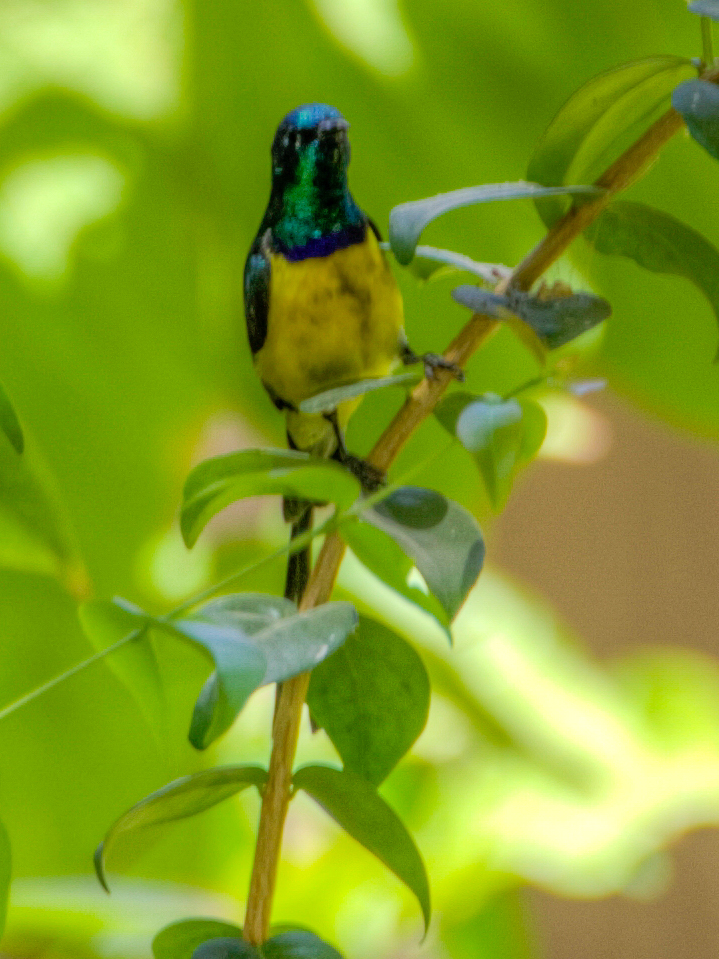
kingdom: Animalia
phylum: Chordata
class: Aves
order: Passeriformes
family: Nectariniidae
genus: Hedydipna
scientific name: Hedydipna metallica
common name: Nile valley sunbird
